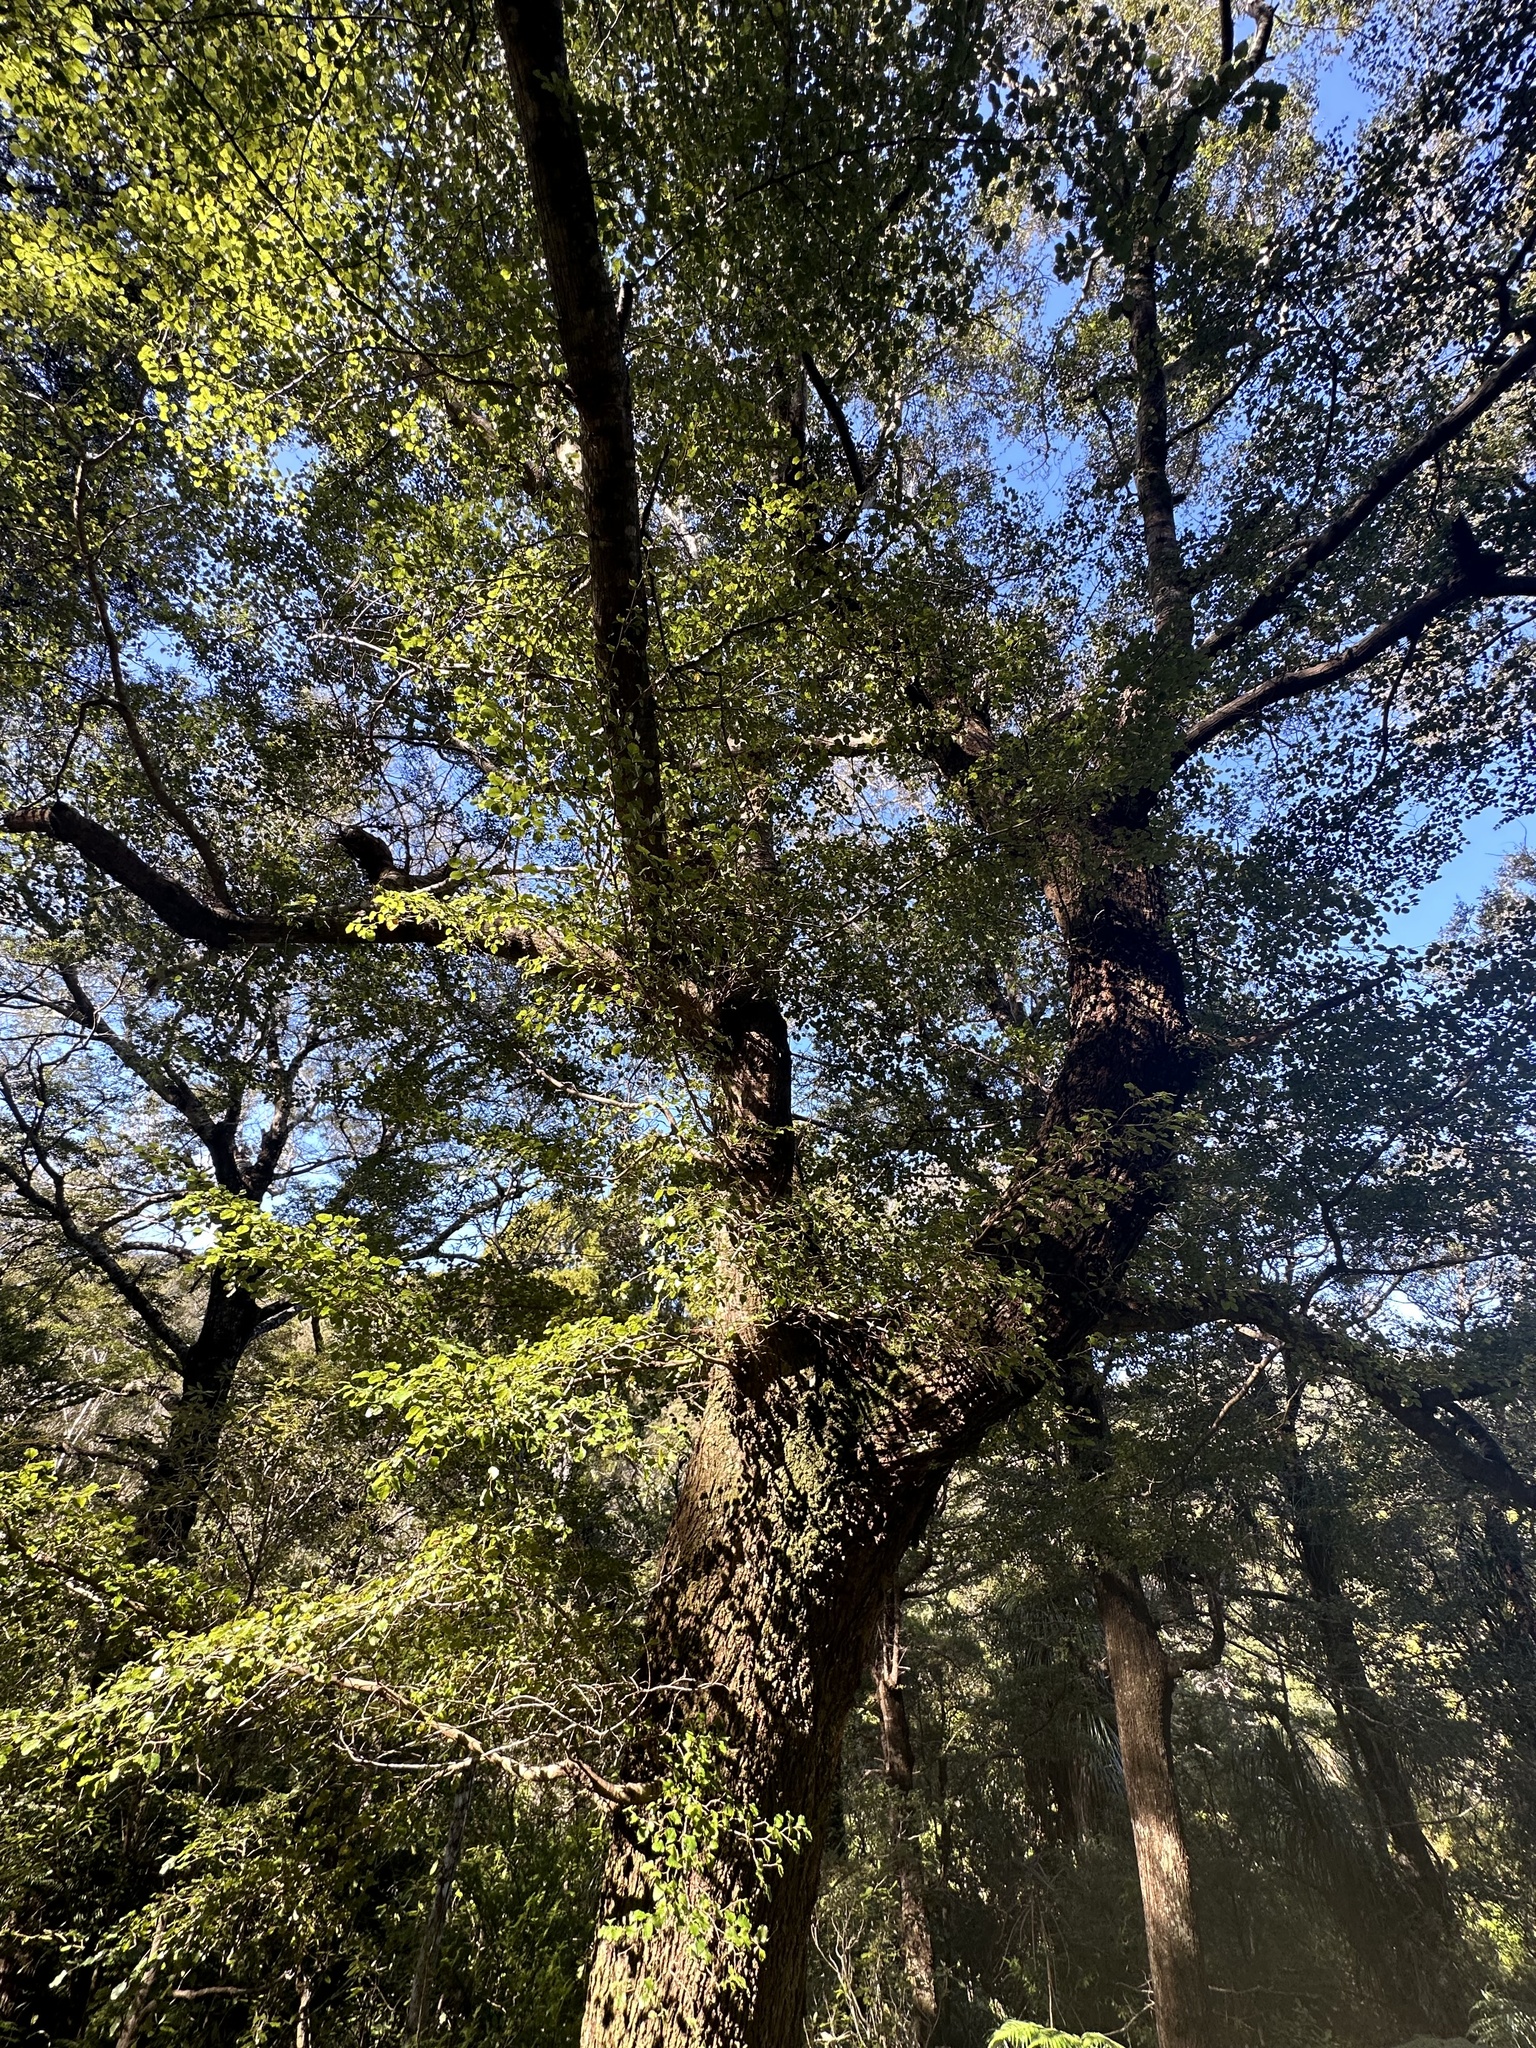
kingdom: Plantae
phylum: Tracheophyta
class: Magnoliopsida
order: Fagales
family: Nothofagaceae
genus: Nothofagus
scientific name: Nothofagus truncata
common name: Hard beech
